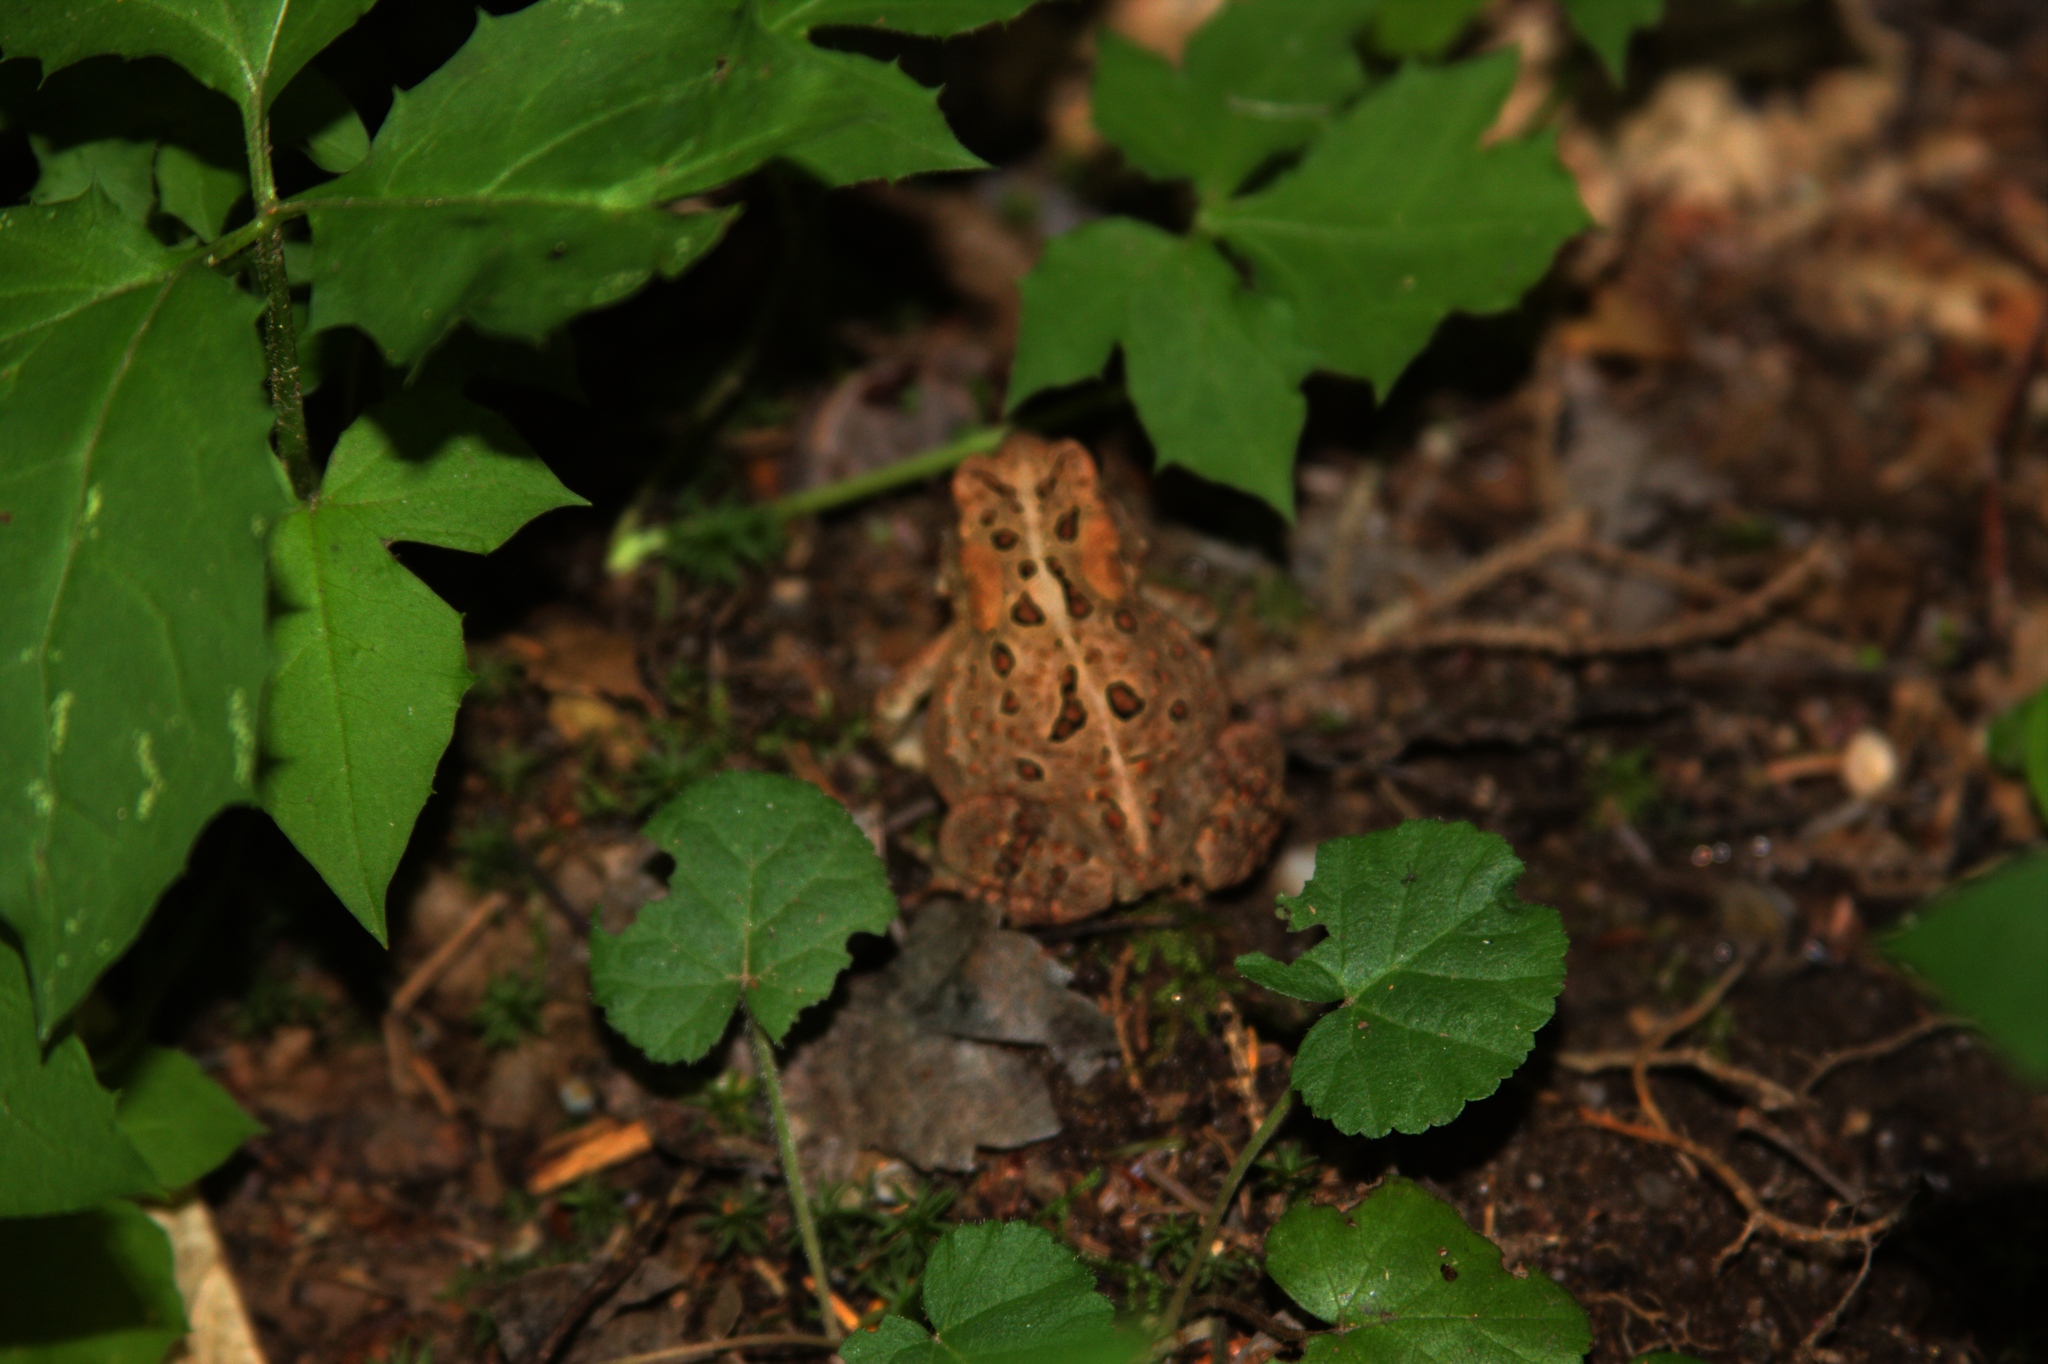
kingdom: Animalia
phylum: Chordata
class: Amphibia
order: Anura
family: Bufonidae
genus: Anaxyrus
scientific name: Anaxyrus americanus
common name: American toad
